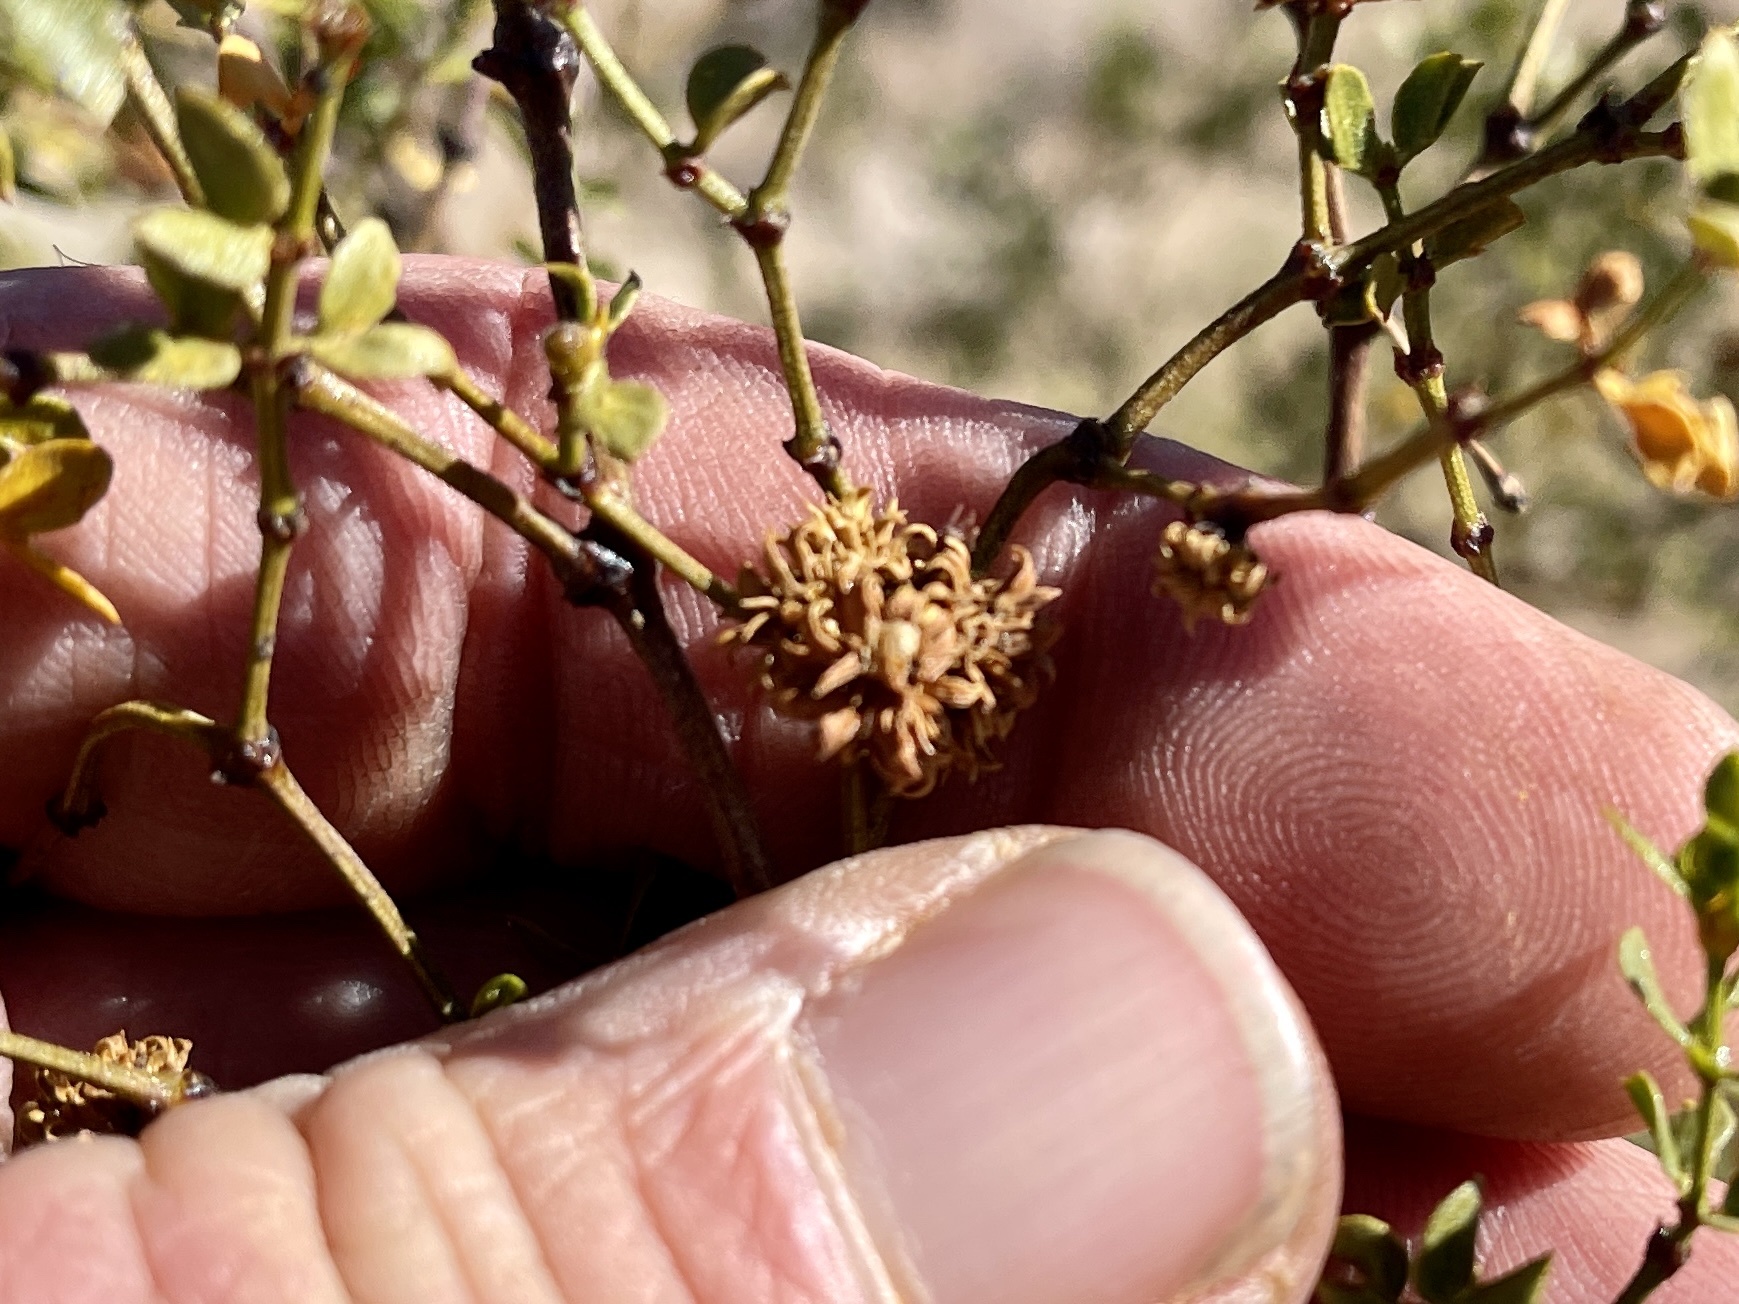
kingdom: Animalia
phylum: Arthropoda
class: Insecta
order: Diptera
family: Cecidomyiidae
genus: Asphondylia
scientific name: Asphondylia rosetta
